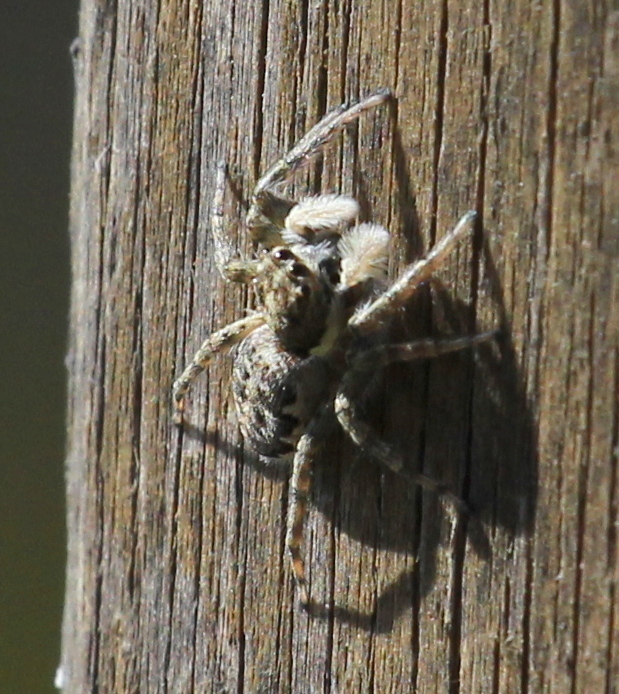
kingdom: Animalia
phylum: Arthropoda
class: Arachnida
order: Araneae
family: Salticidae
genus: Menemerus
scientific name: Menemerus semilimbatus
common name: Jumping spider
